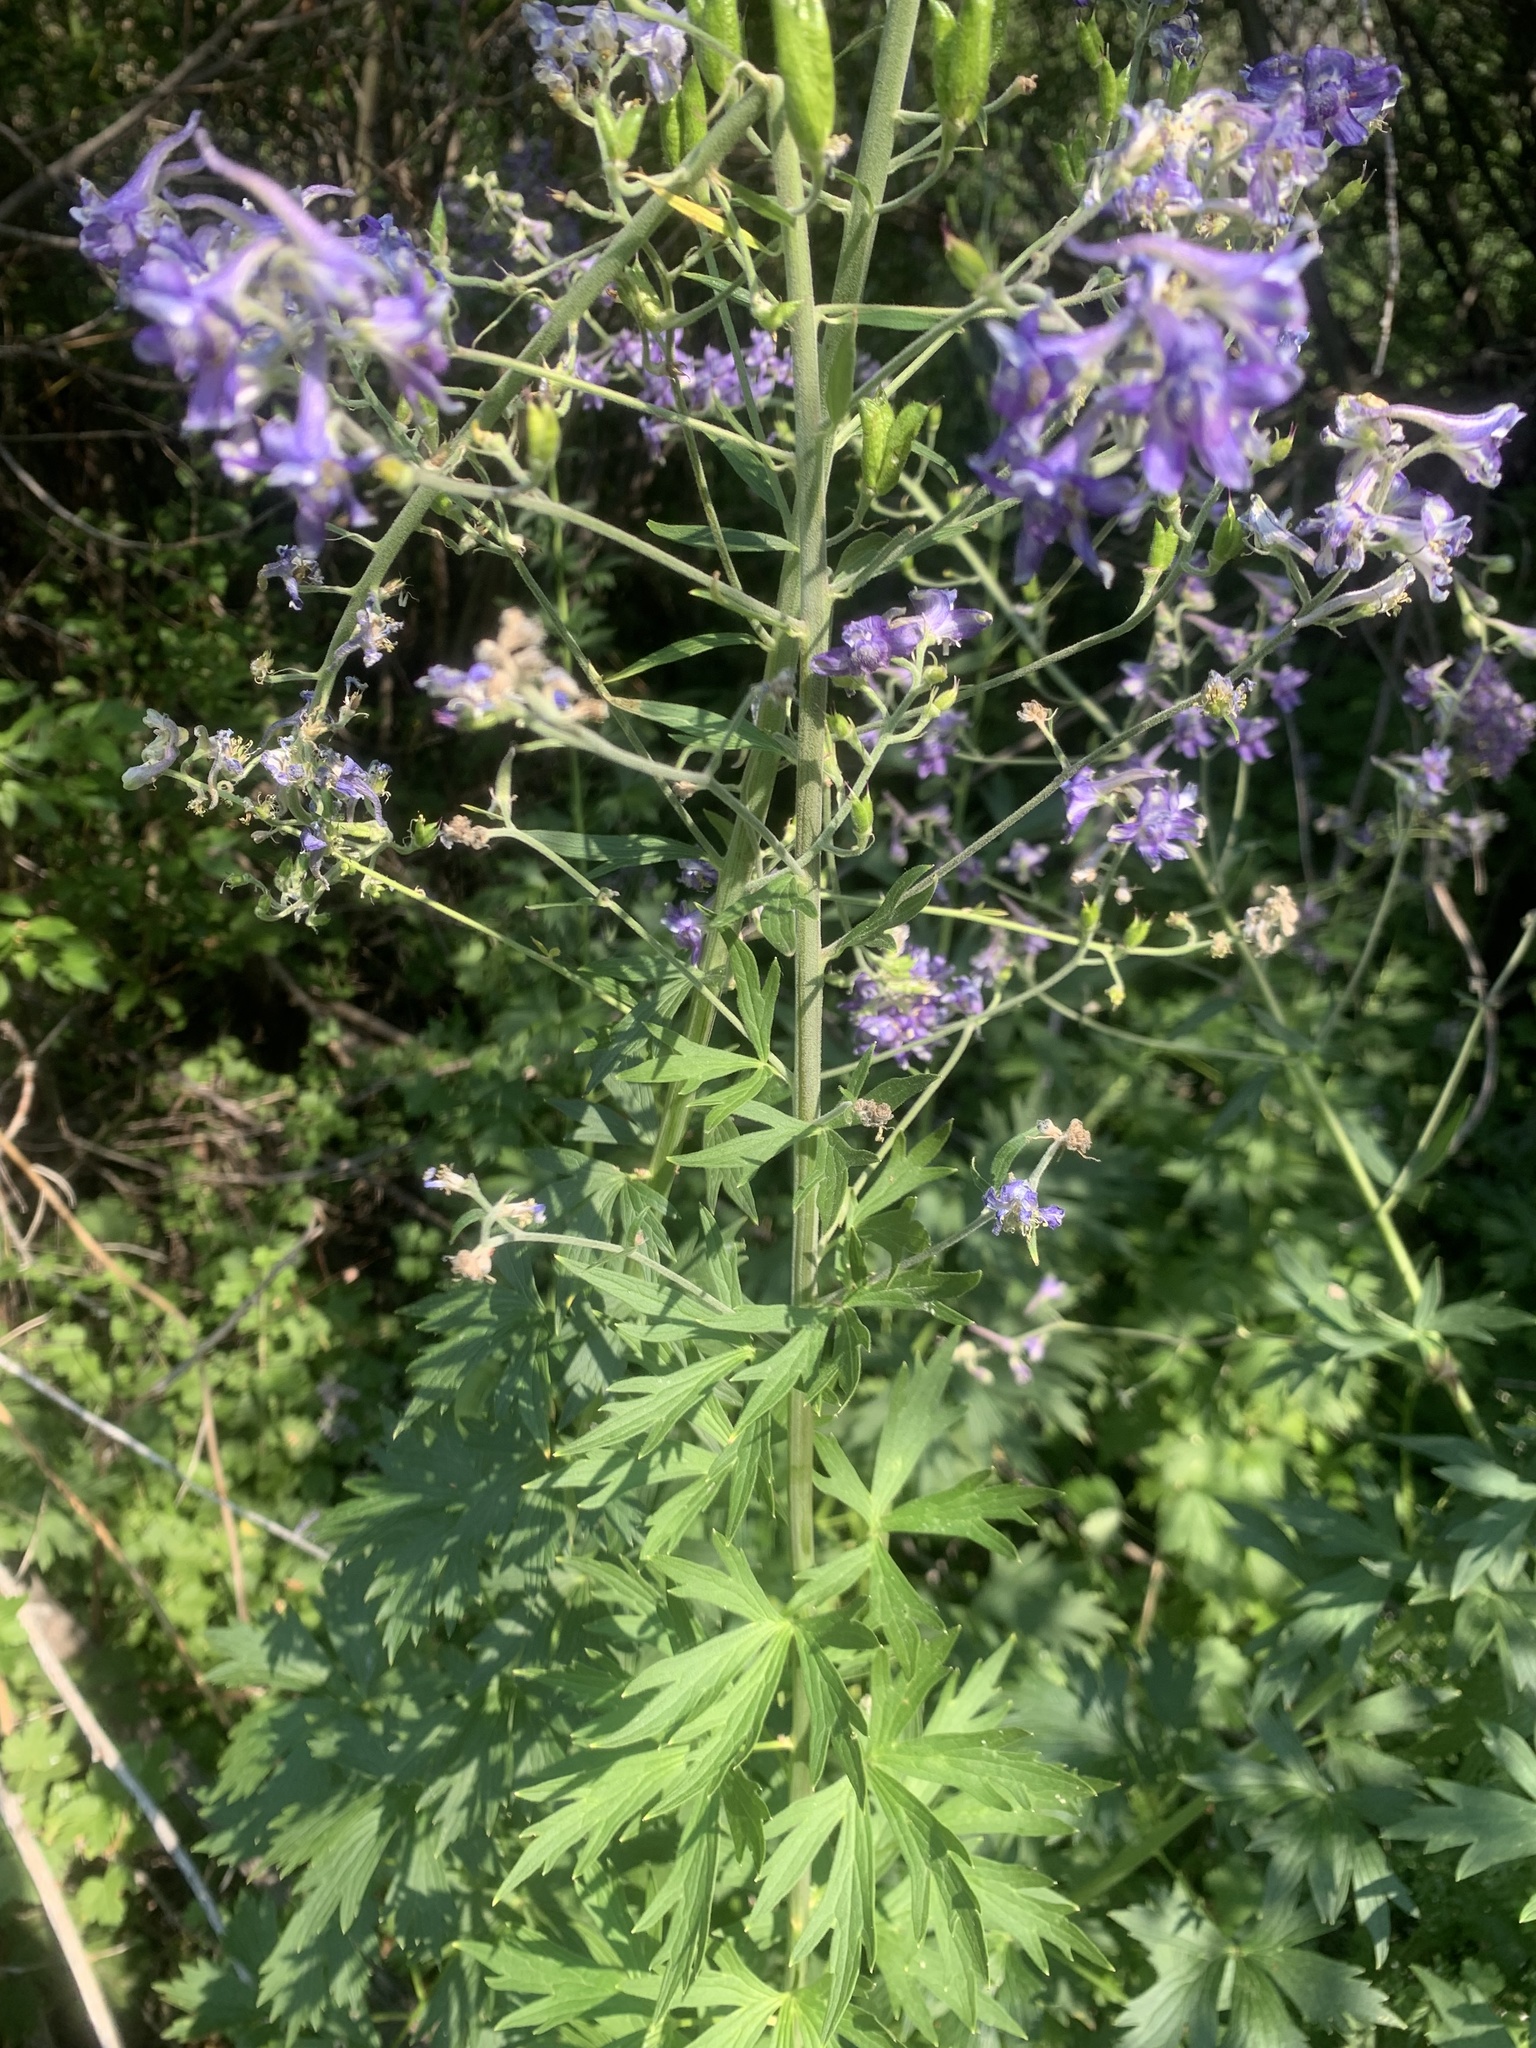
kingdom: Plantae
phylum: Tracheophyta
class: Magnoliopsida
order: Ranunculales
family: Ranunculaceae
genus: Delphinium
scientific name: Delphinium occidentale
